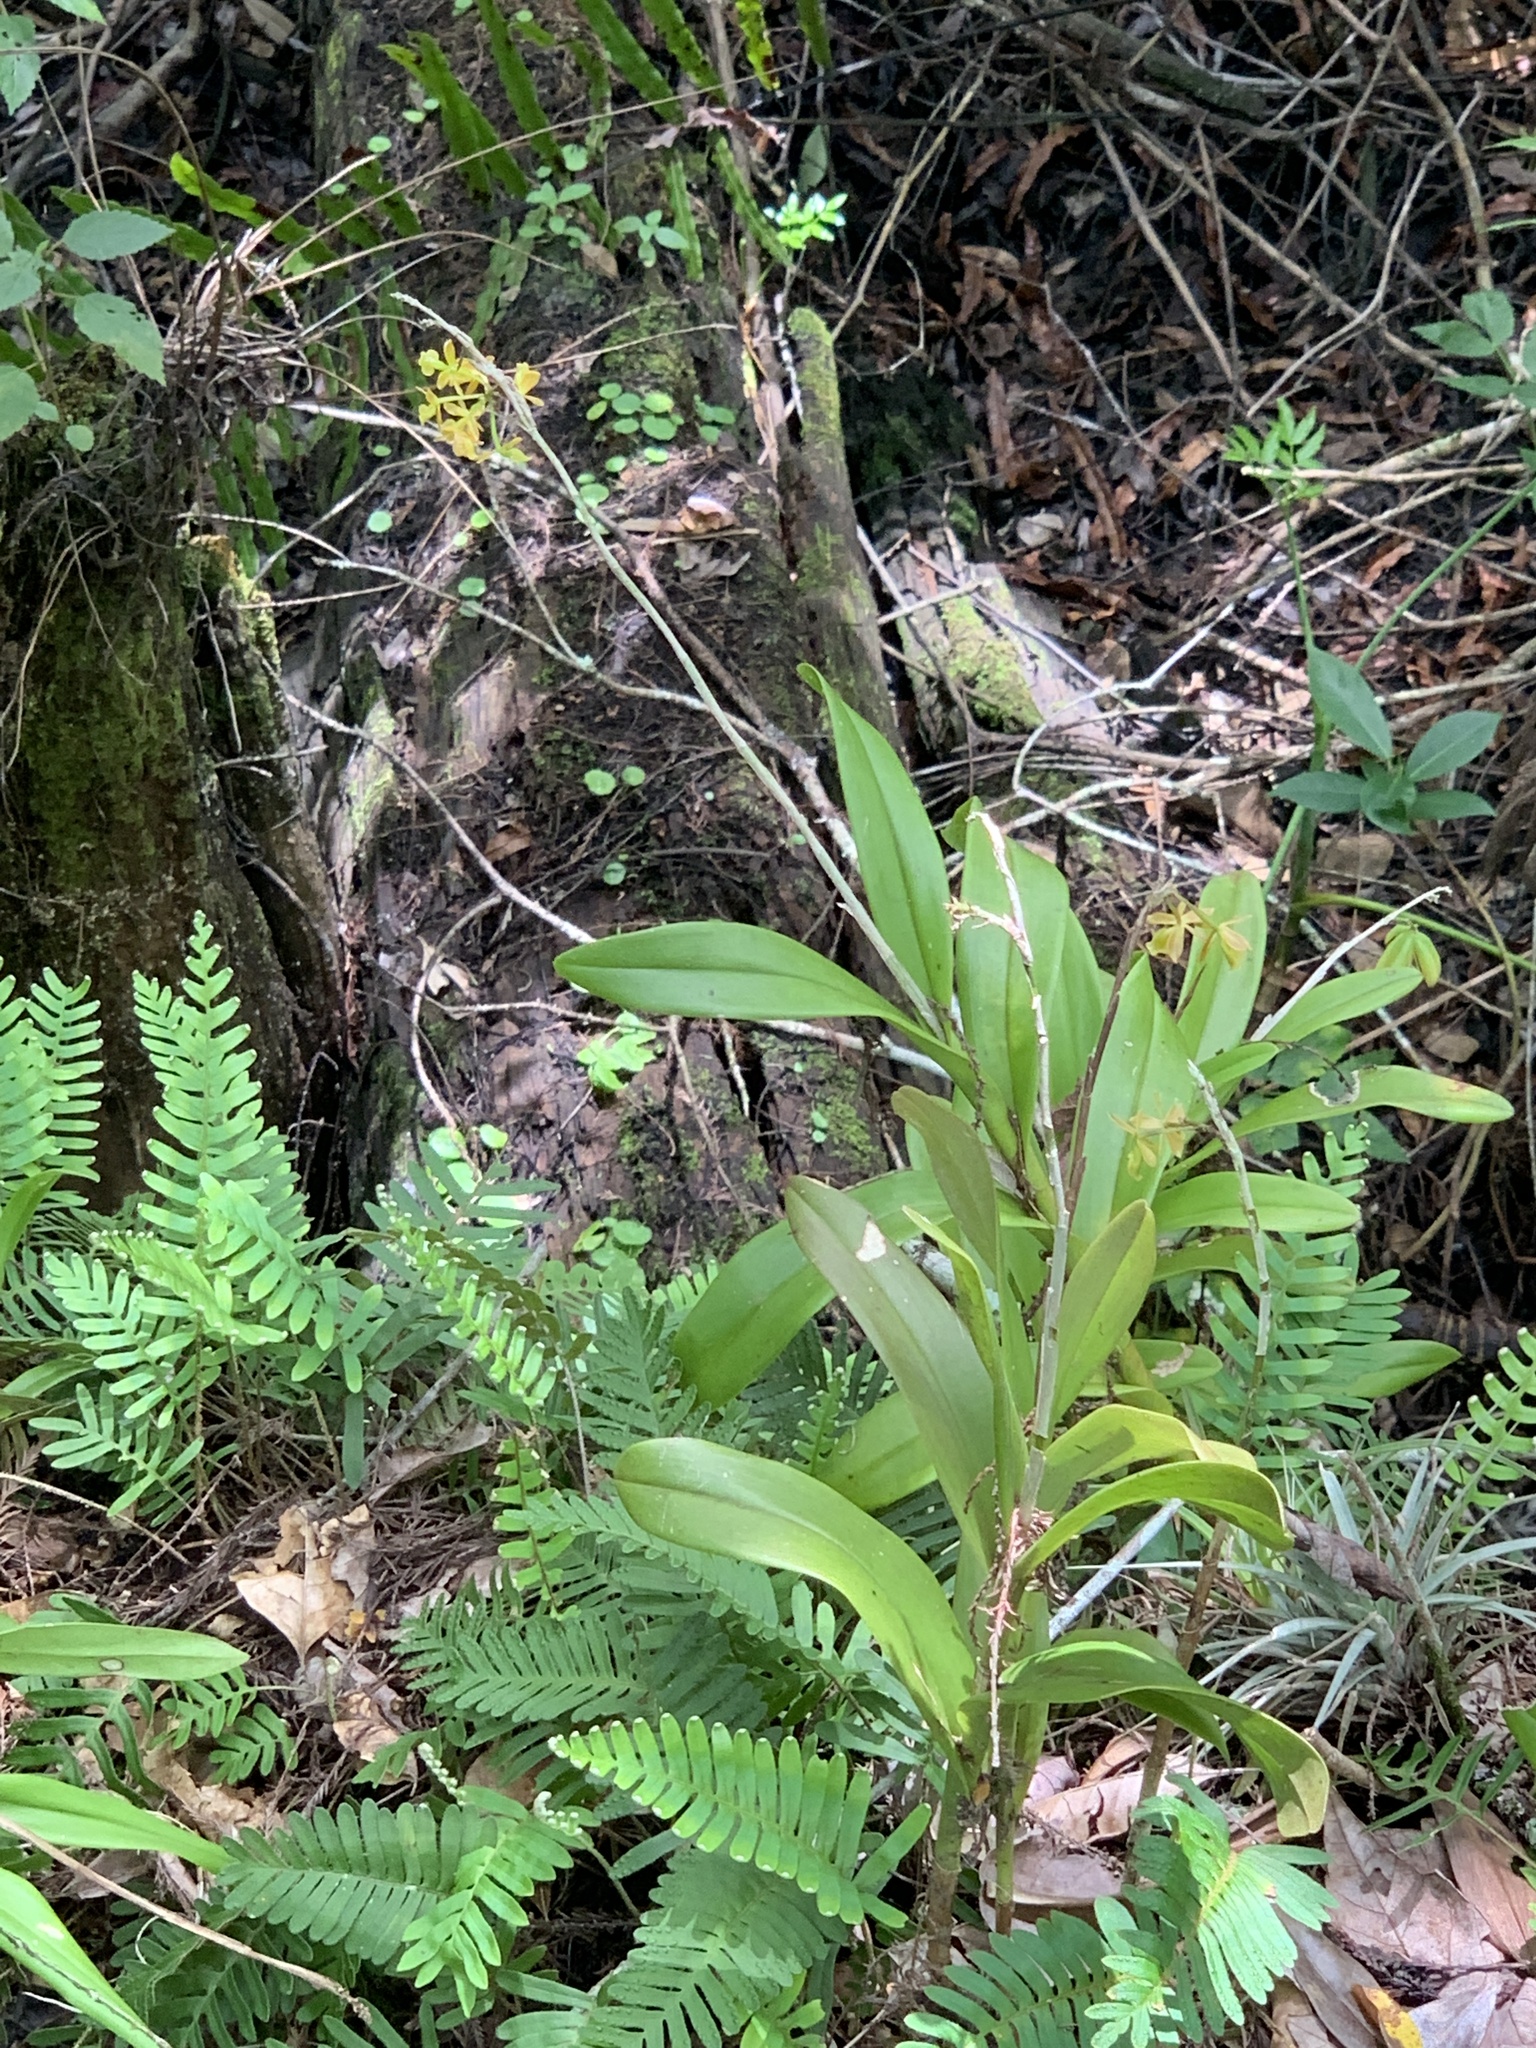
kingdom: Plantae
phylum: Tracheophyta
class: Liliopsida
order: Asparagales
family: Orchidaceae
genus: Epidendrum
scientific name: Epidendrum amphistomum
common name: Big-mouth star orchid
